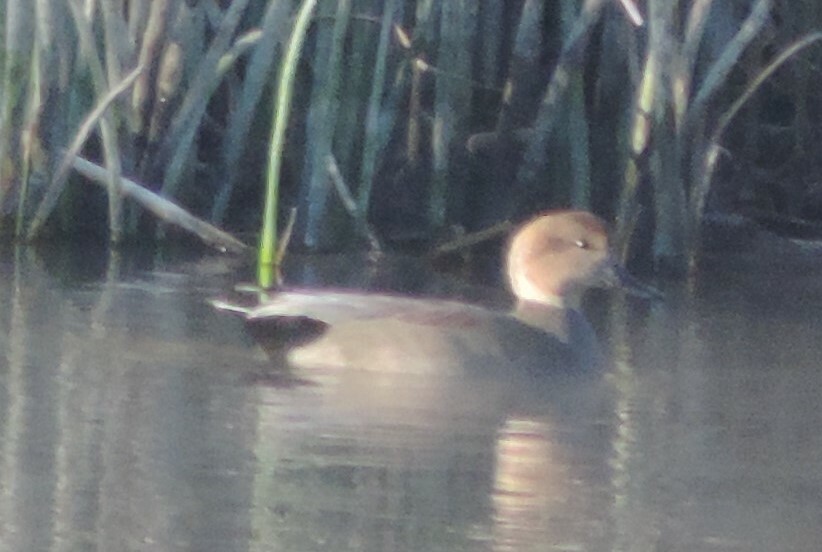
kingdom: Animalia
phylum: Chordata
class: Aves
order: Anseriformes
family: Anatidae
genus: Mareca
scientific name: Mareca strepera
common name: Gadwall
